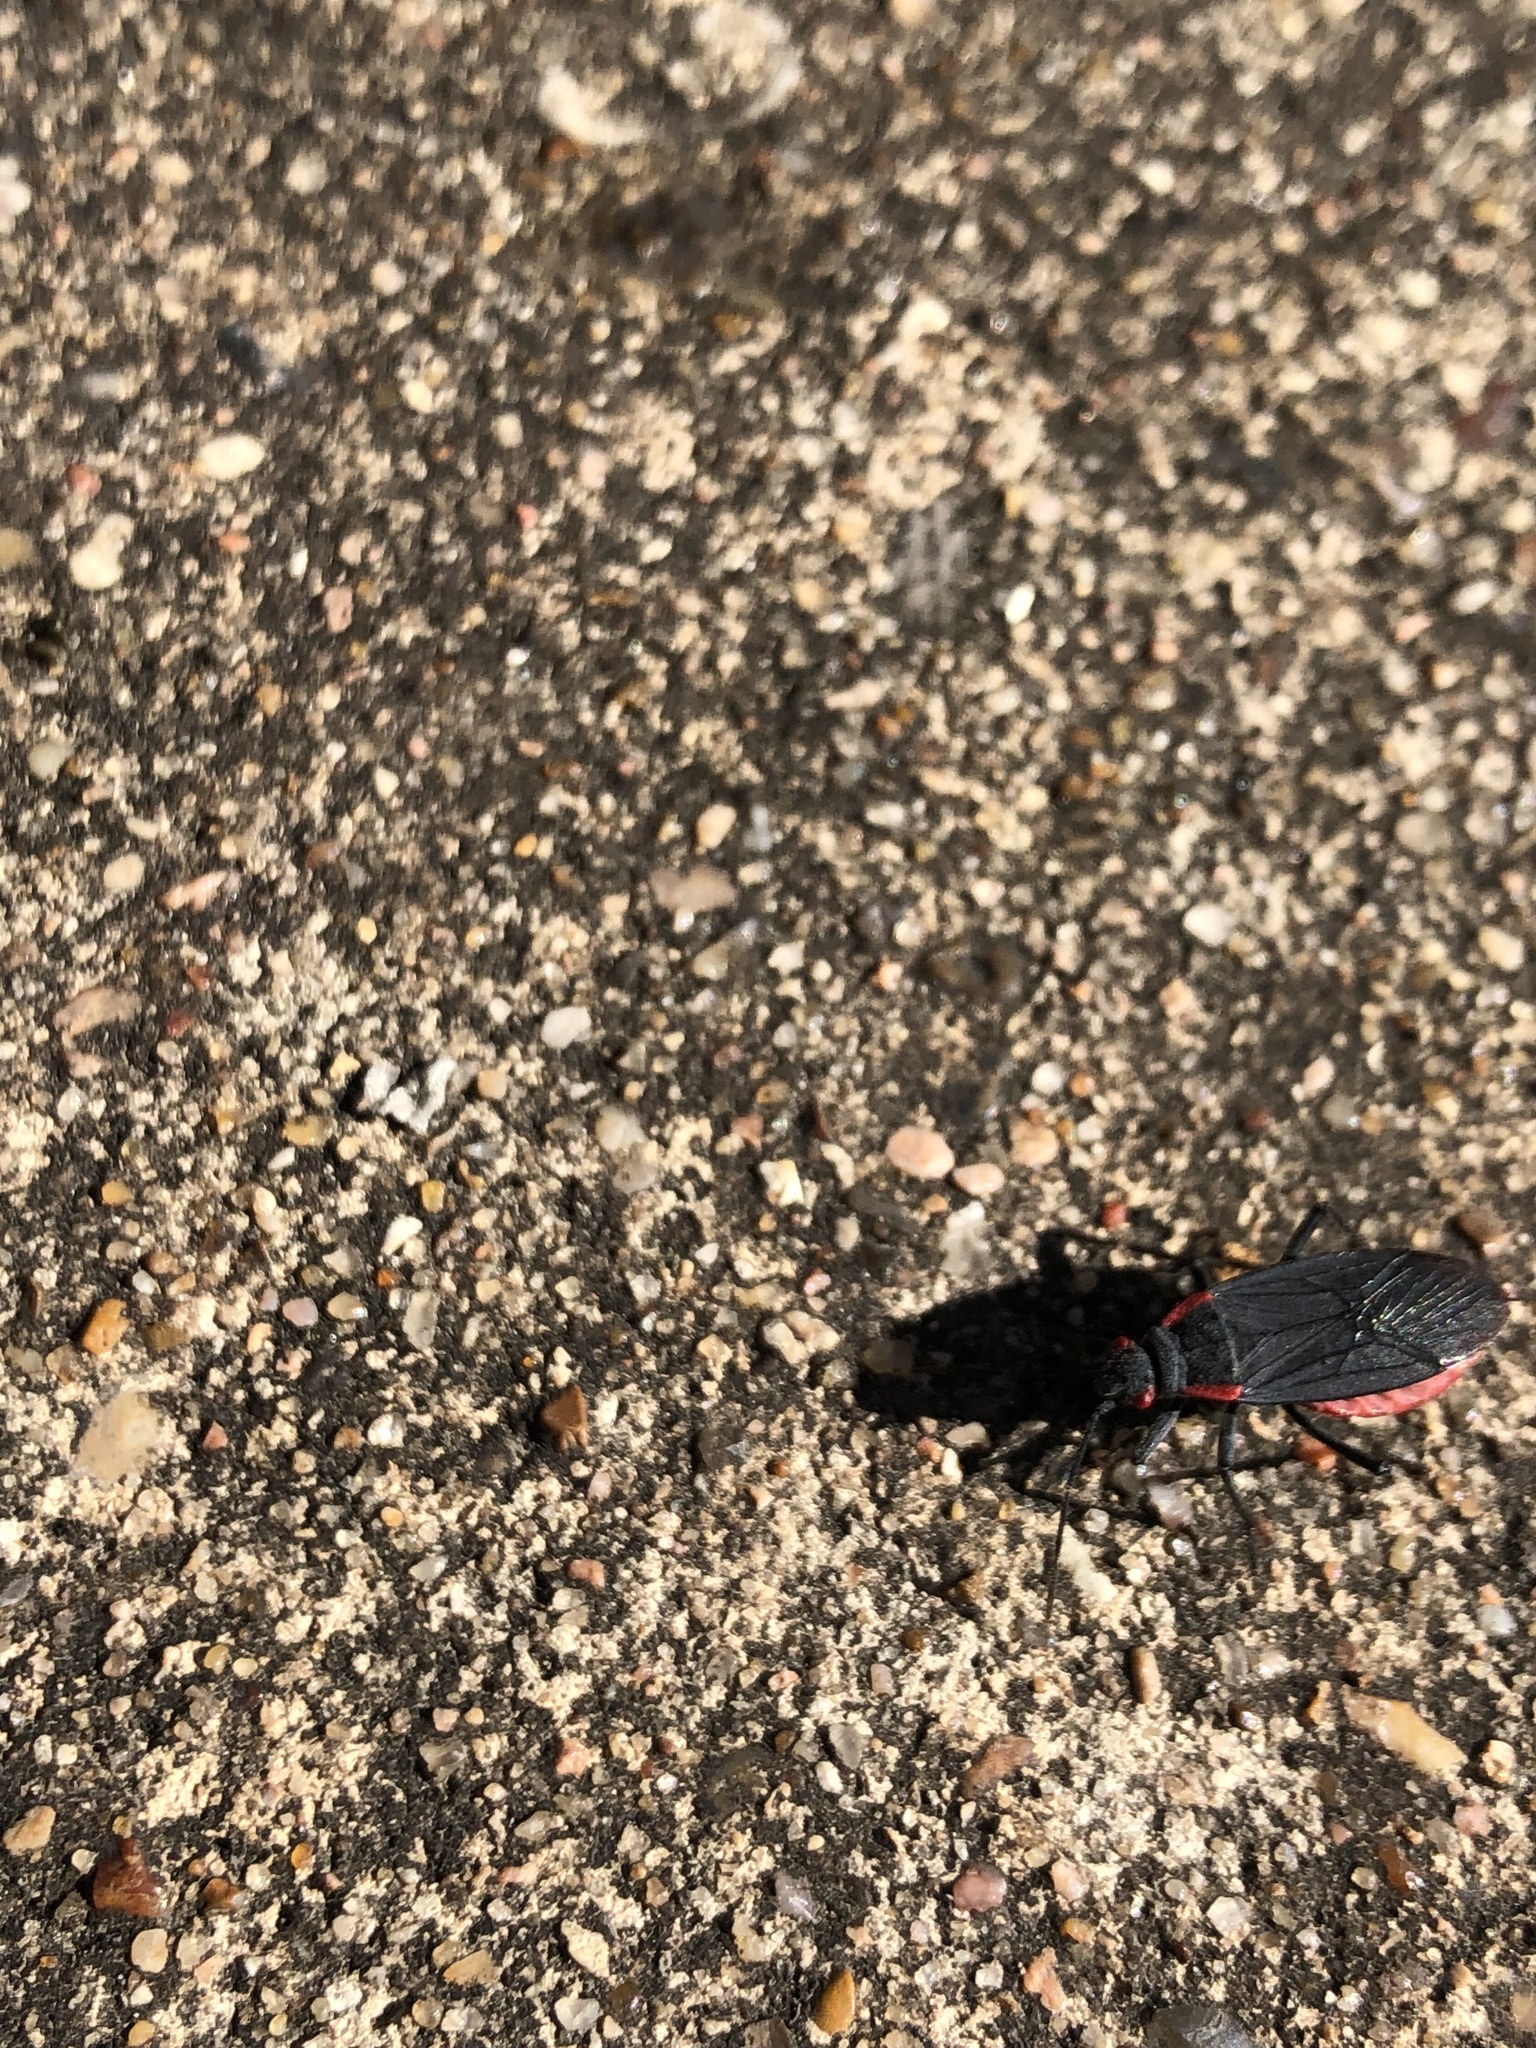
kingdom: Animalia
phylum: Arthropoda
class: Insecta
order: Hemiptera
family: Rhopalidae
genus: Jadera
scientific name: Jadera haematoloma
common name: Red-shouldered bug
